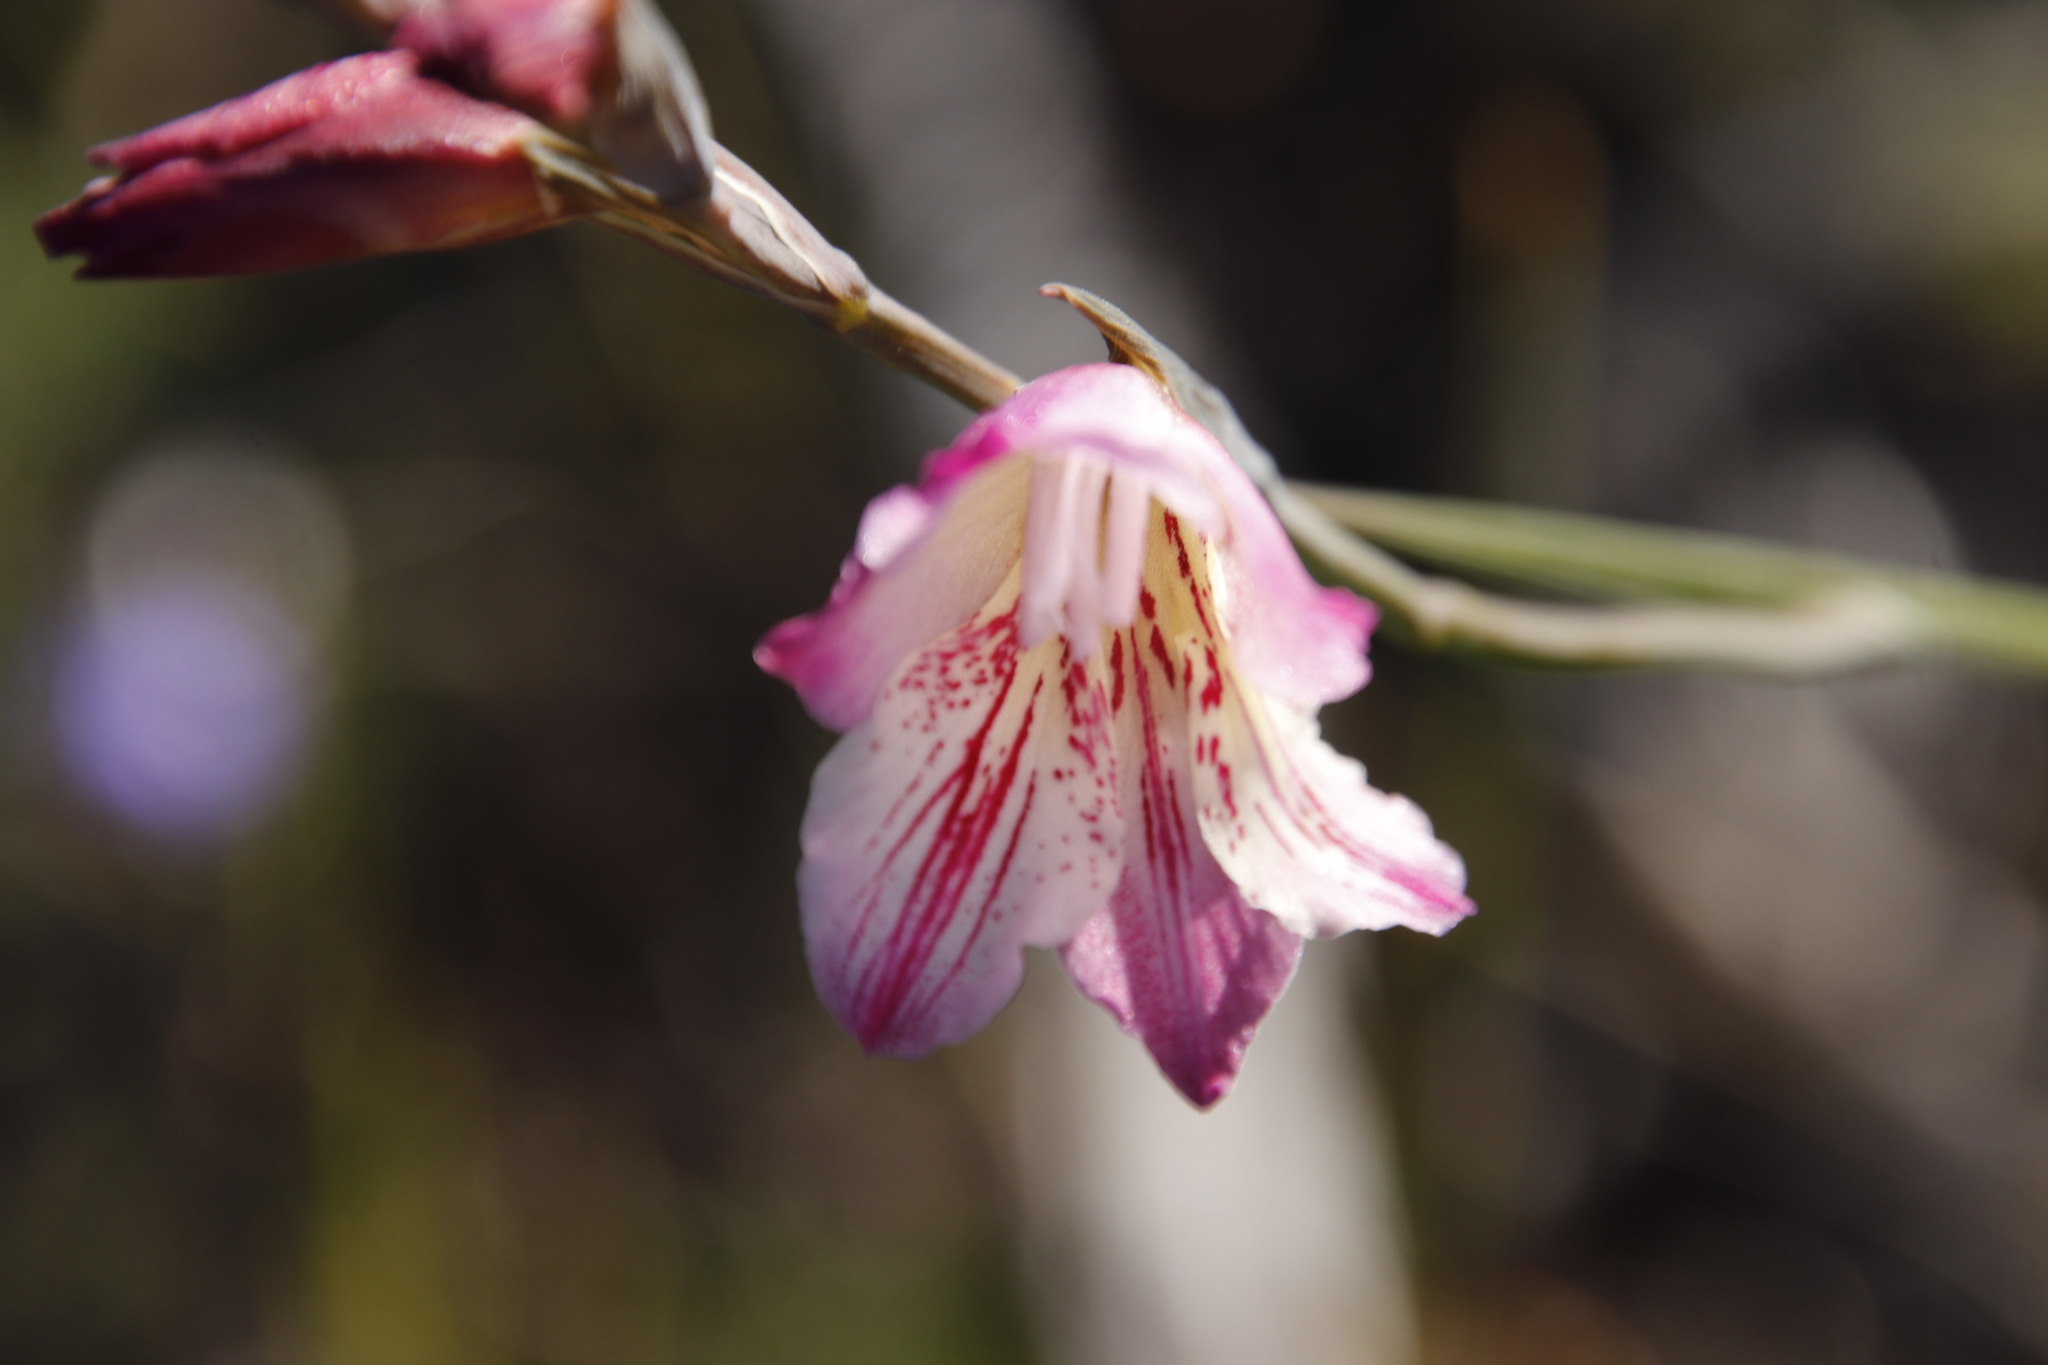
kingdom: Plantae
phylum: Tracheophyta
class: Liliopsida
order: Asparagales
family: Iridaceae
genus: Gladiolus
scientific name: Gladiolus hirsutus
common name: Small pink afrikaner
